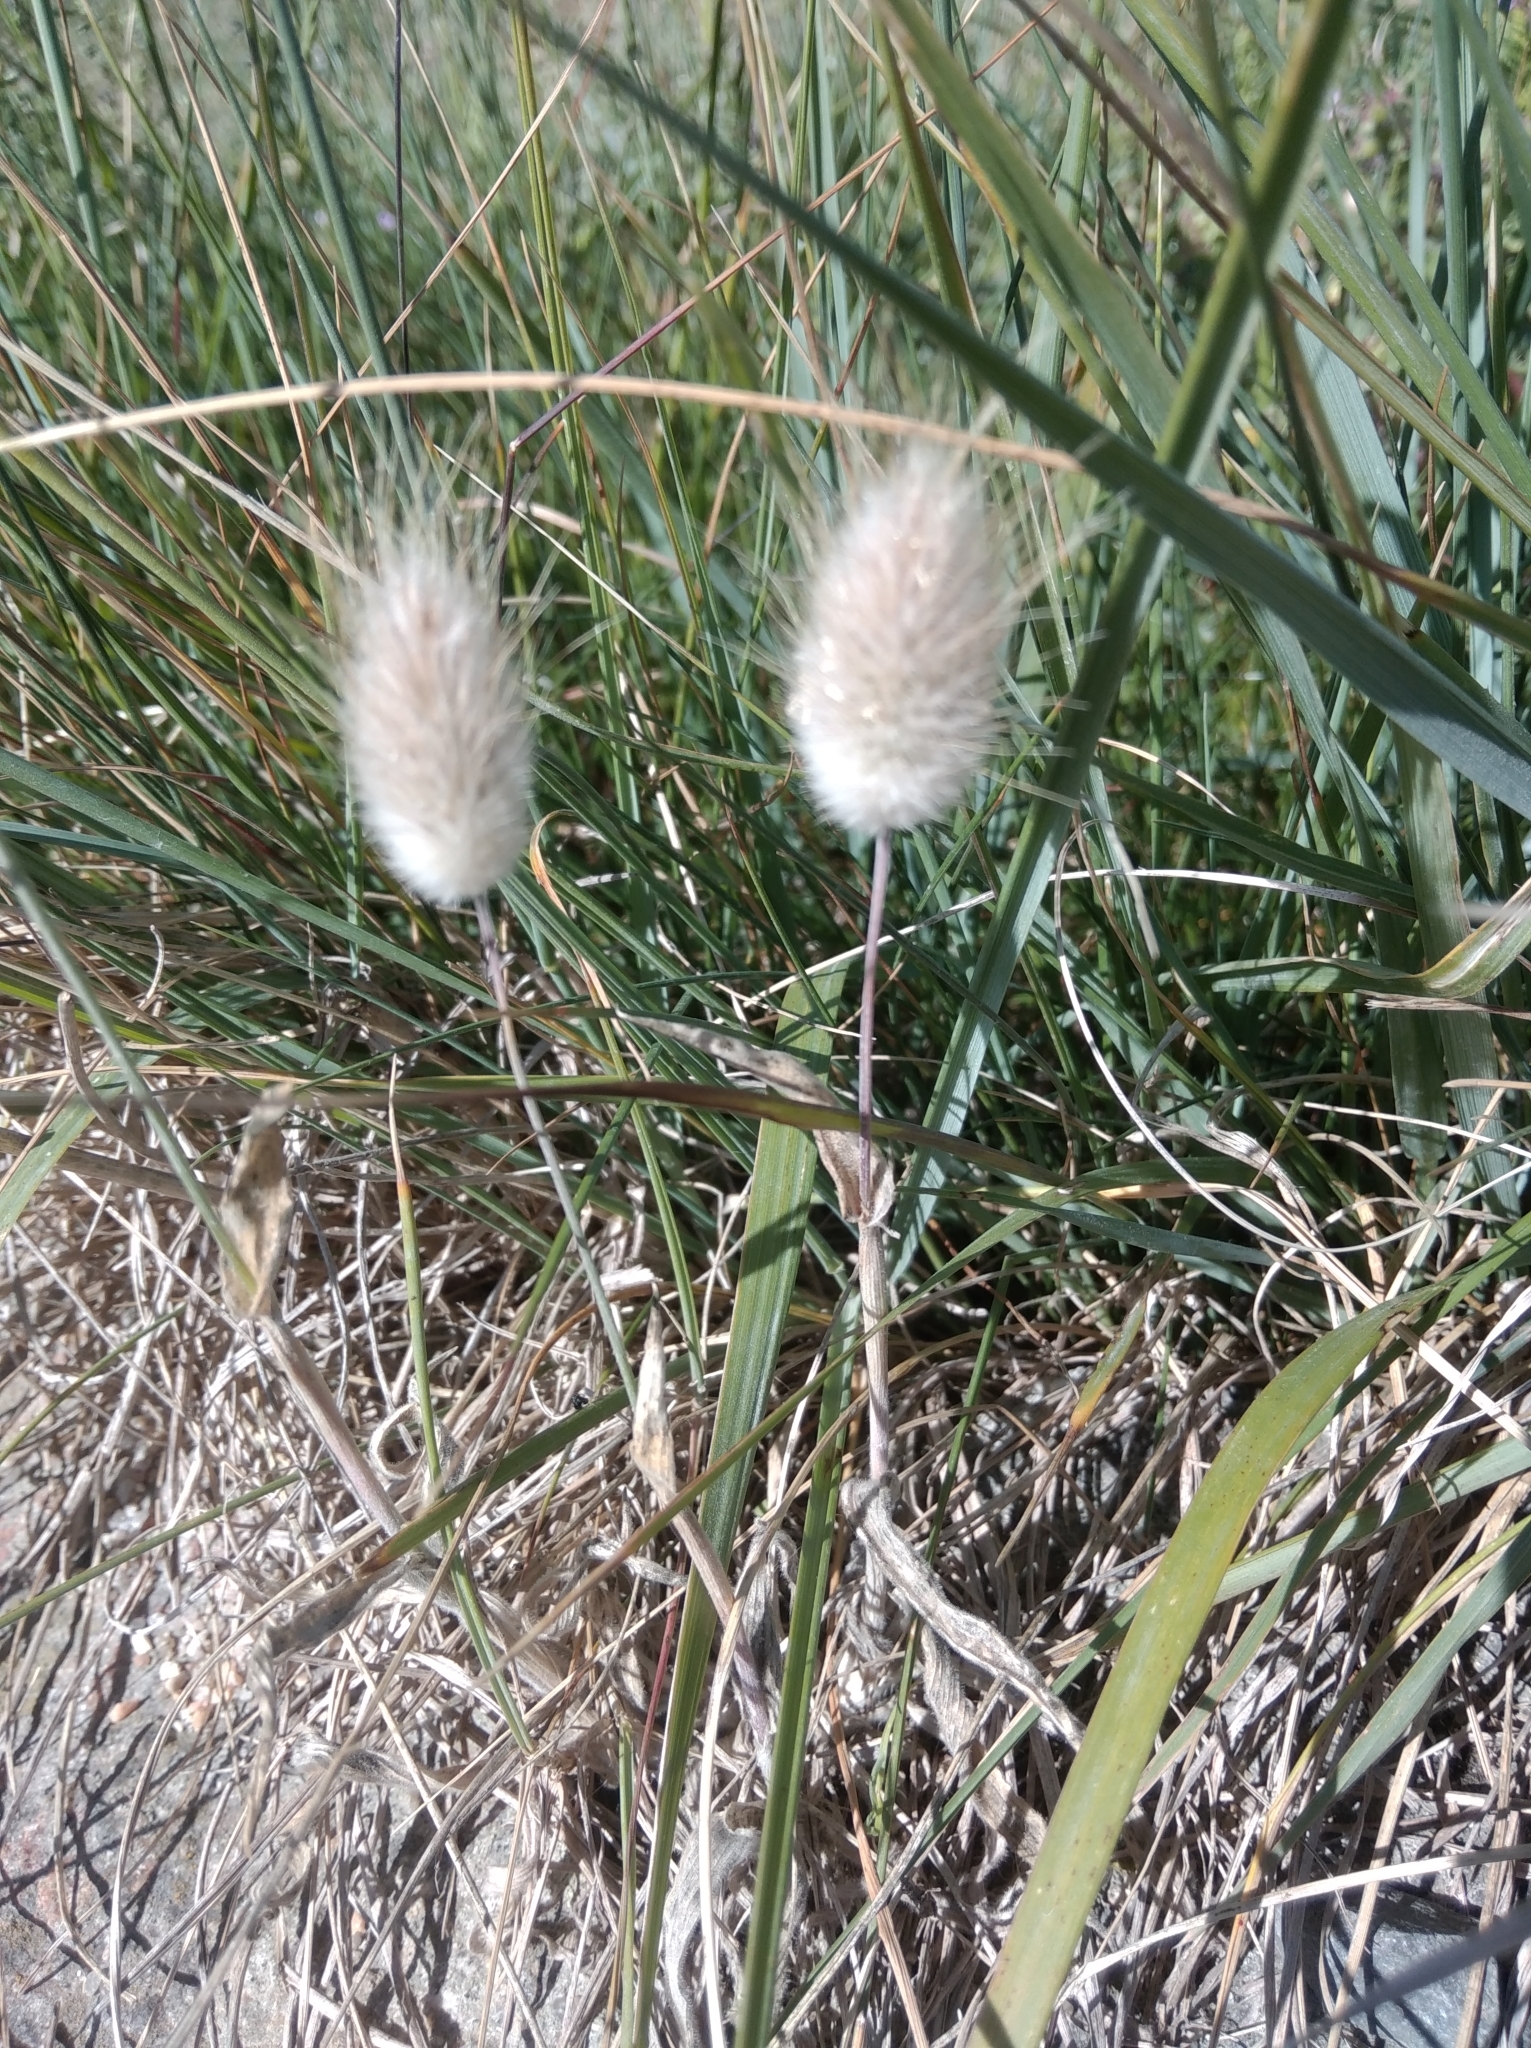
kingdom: Plantae
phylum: Tracheophyta
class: Liliopsida
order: Poales
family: Poaceae
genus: Lagurus
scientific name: Lagurus ovatus
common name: Hare's-tail
